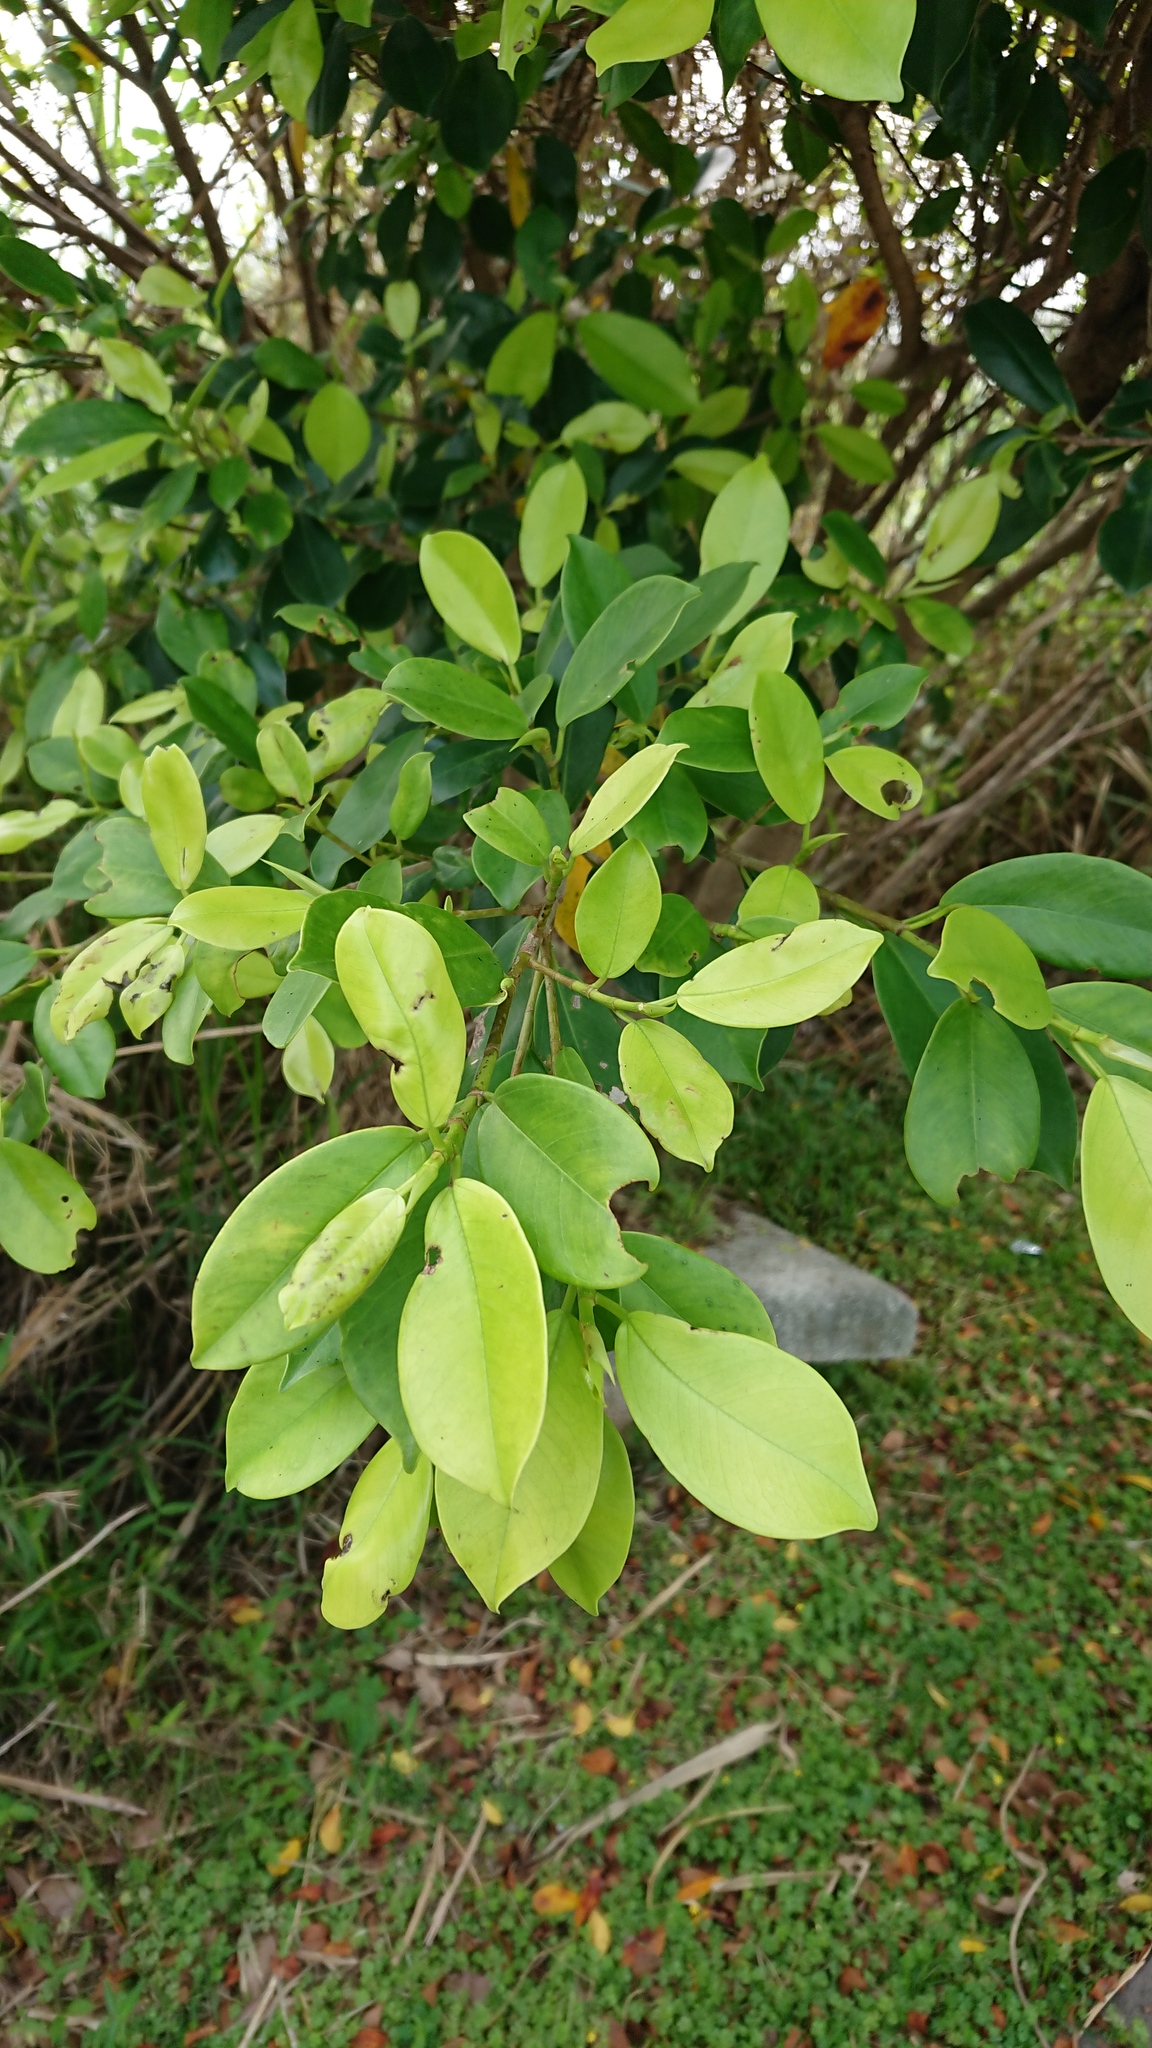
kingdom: Plantae
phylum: Tracheophyta
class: Magnoliopsida
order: Rosales
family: Moraceae
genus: Ficus
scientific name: Ficus microcarpa
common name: Chinese banyan
